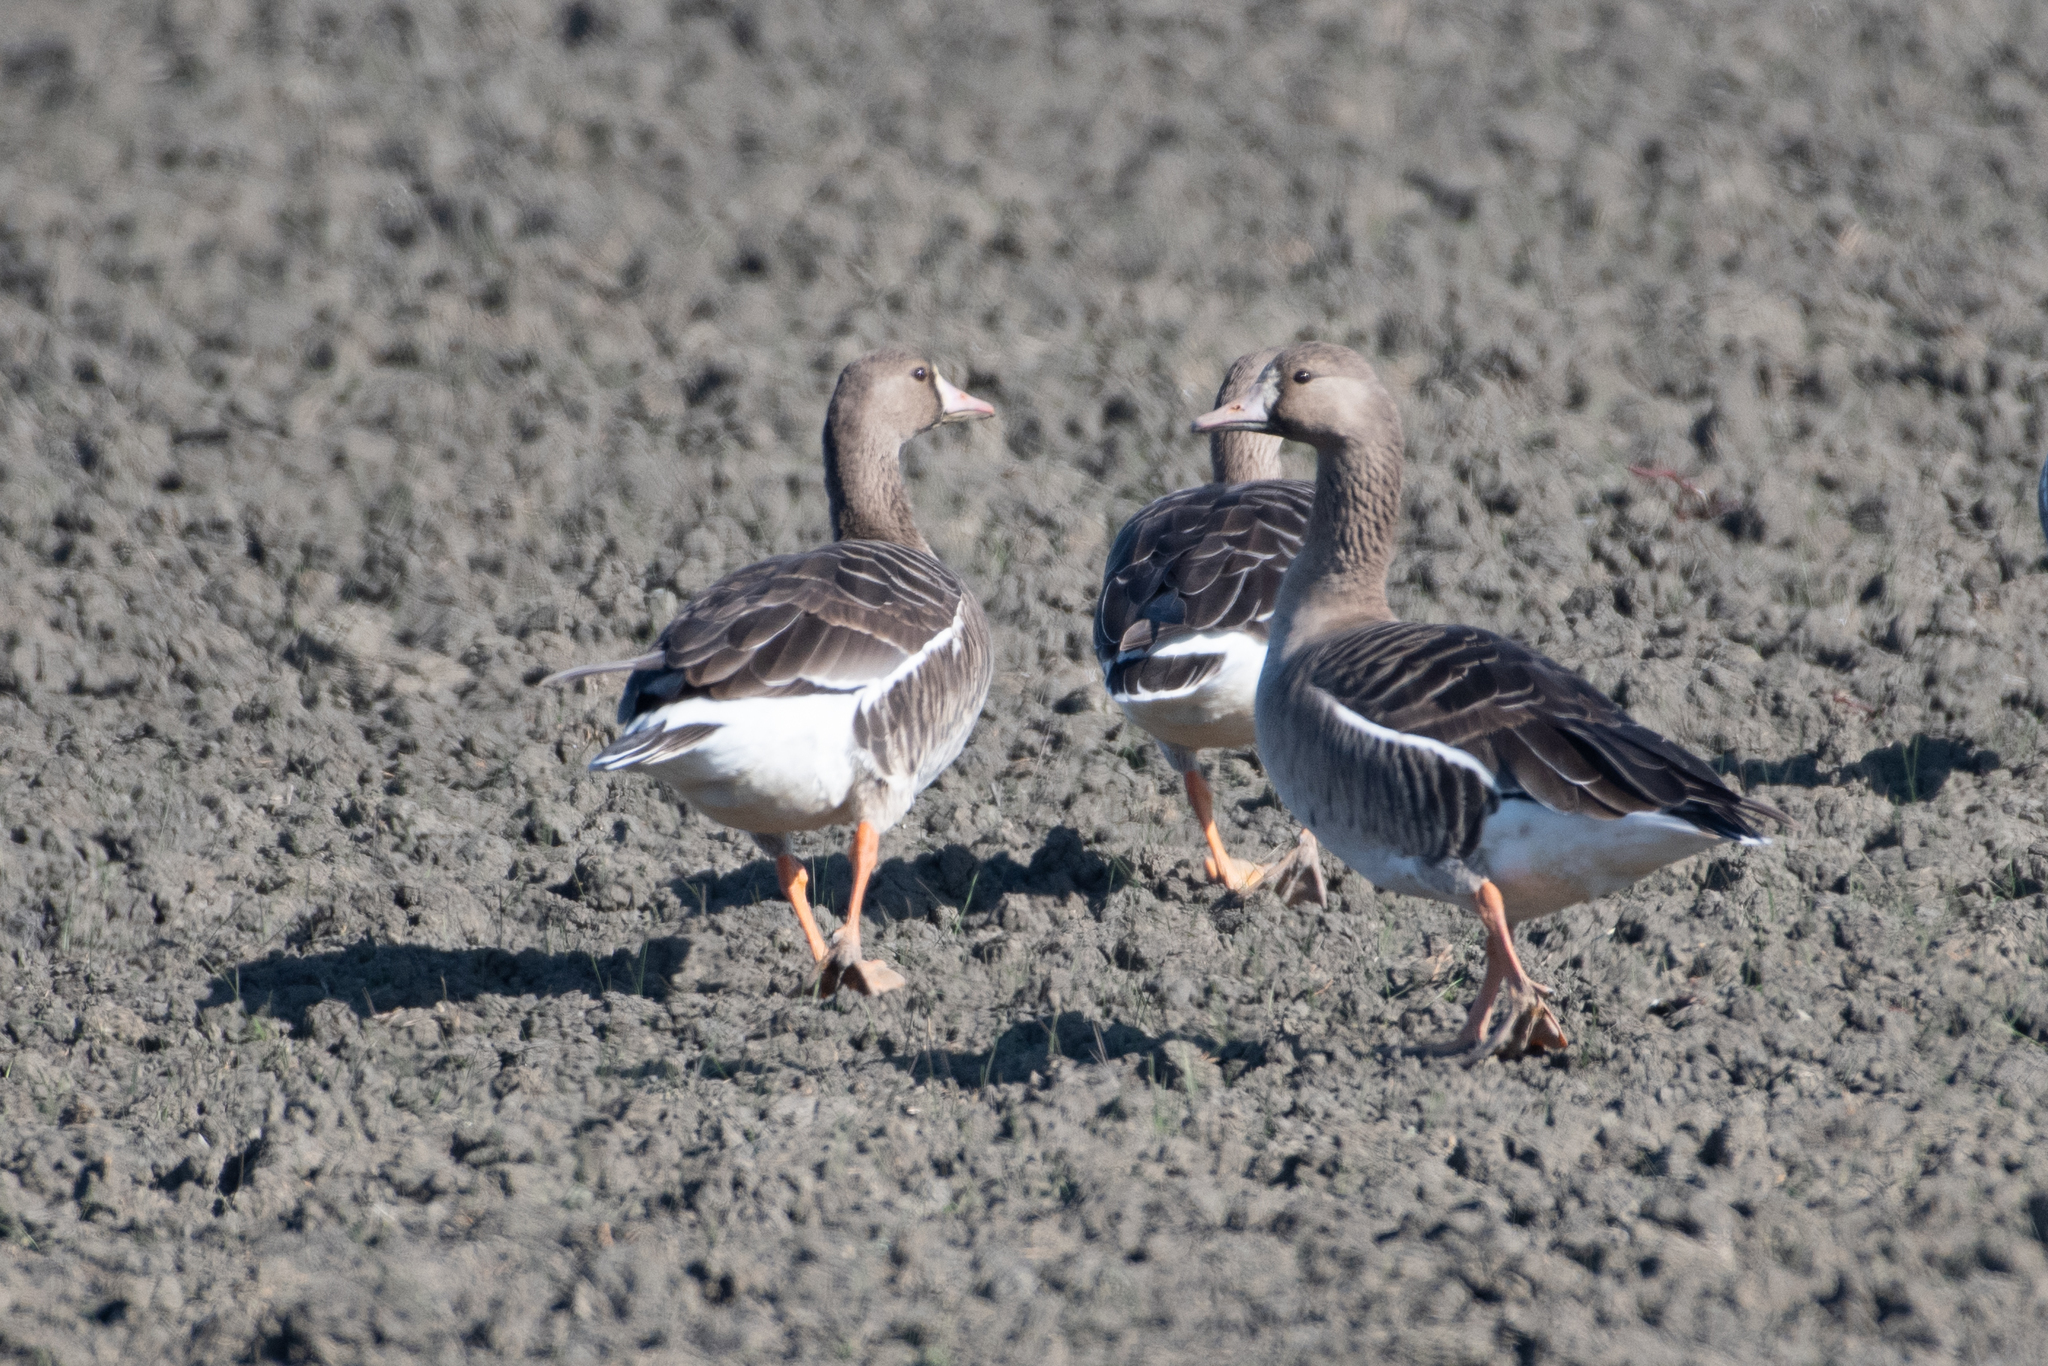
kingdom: Animalia
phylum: Chordata
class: Aves
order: Anseriformes
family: Anatidae
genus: Anser
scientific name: Anser albifrons
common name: Greater white-fronted goose
